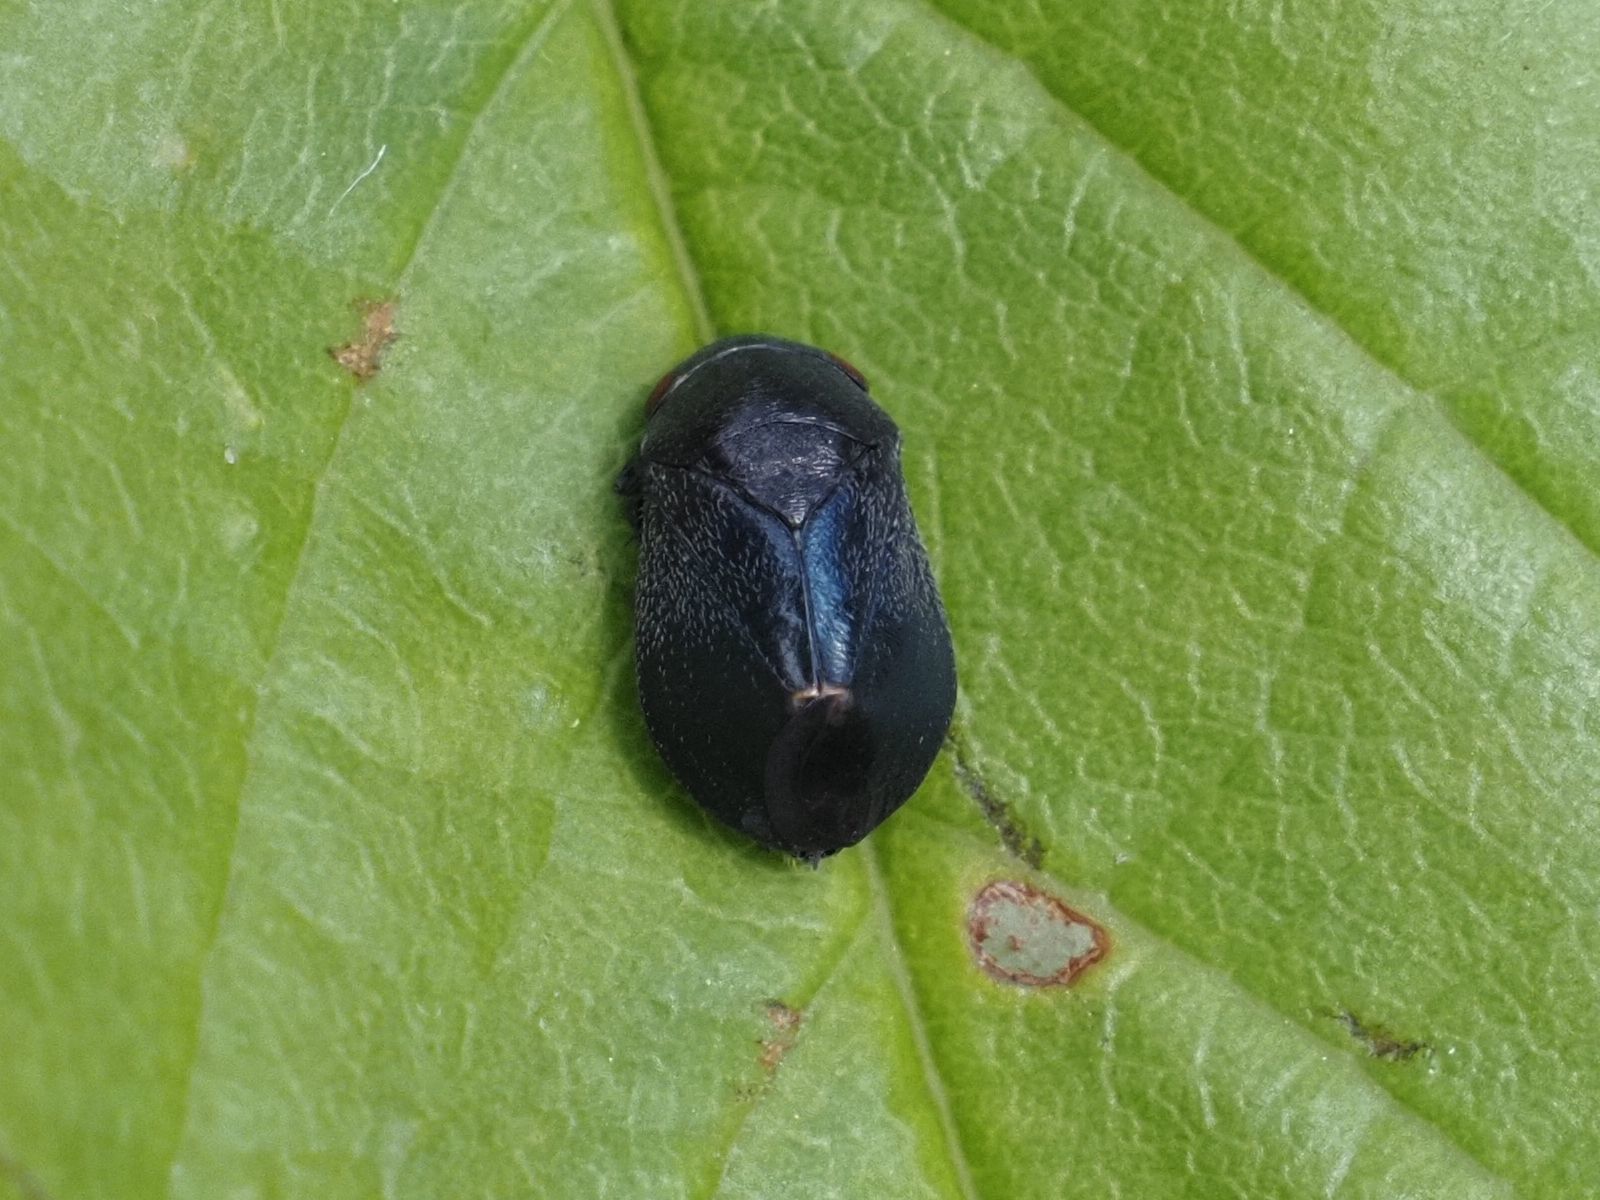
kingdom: Animalia
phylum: Arthropoda
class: Insecta
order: Hemiptera
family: Cicadellidae
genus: Penthimia
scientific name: Penthimia nigra
